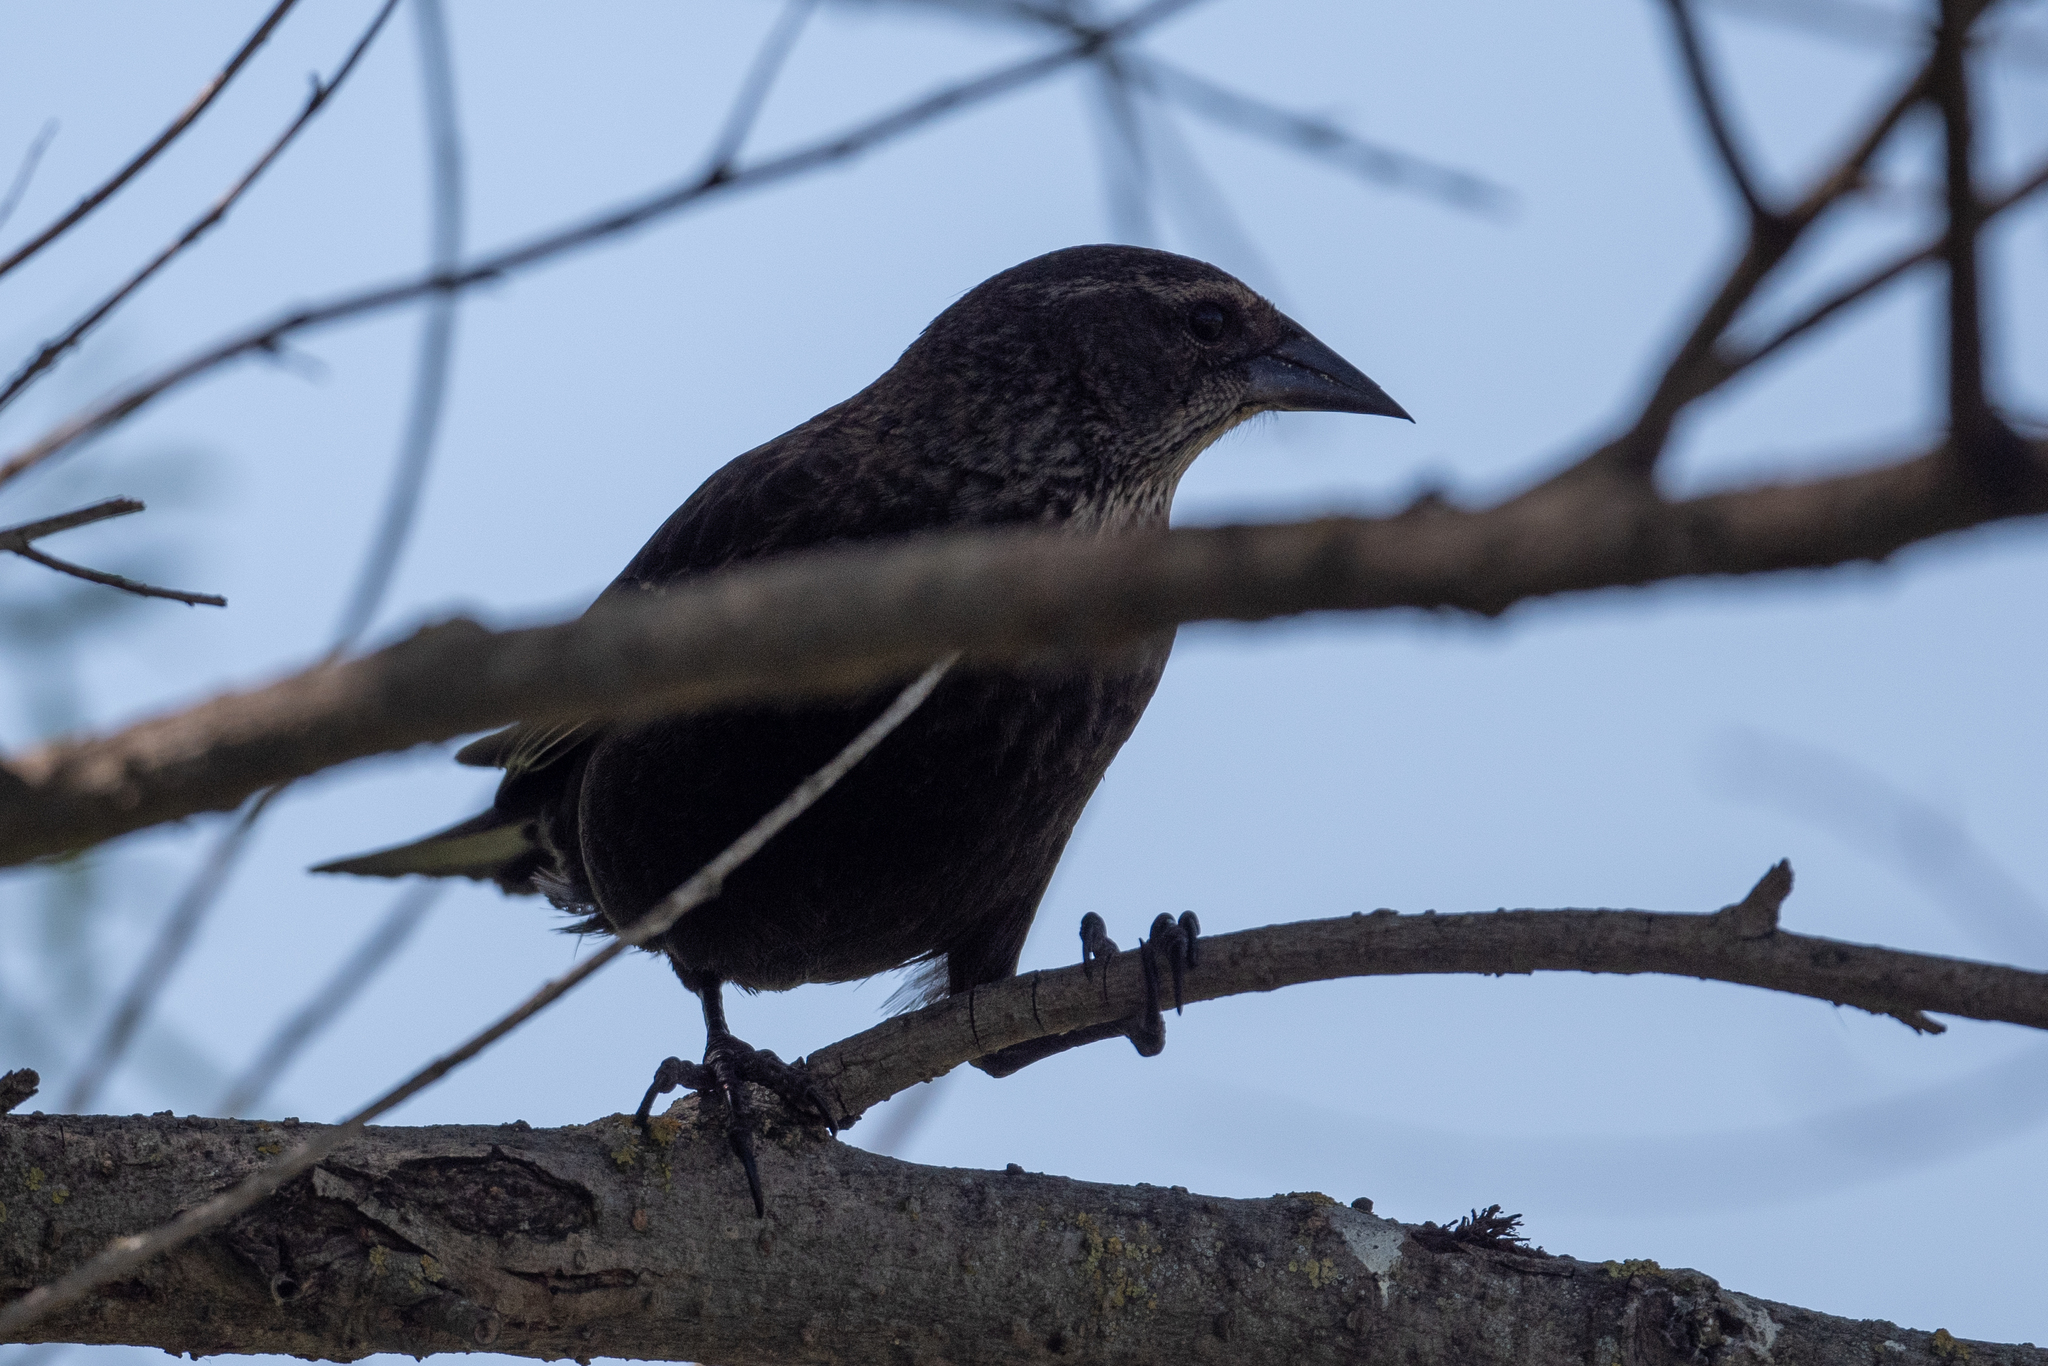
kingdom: Animalia
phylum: Chordata
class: Aves
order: Passeriformes
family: Icteridae
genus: Agelaius
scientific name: Agelaius phoeniceus
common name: Red-winged blackbird
